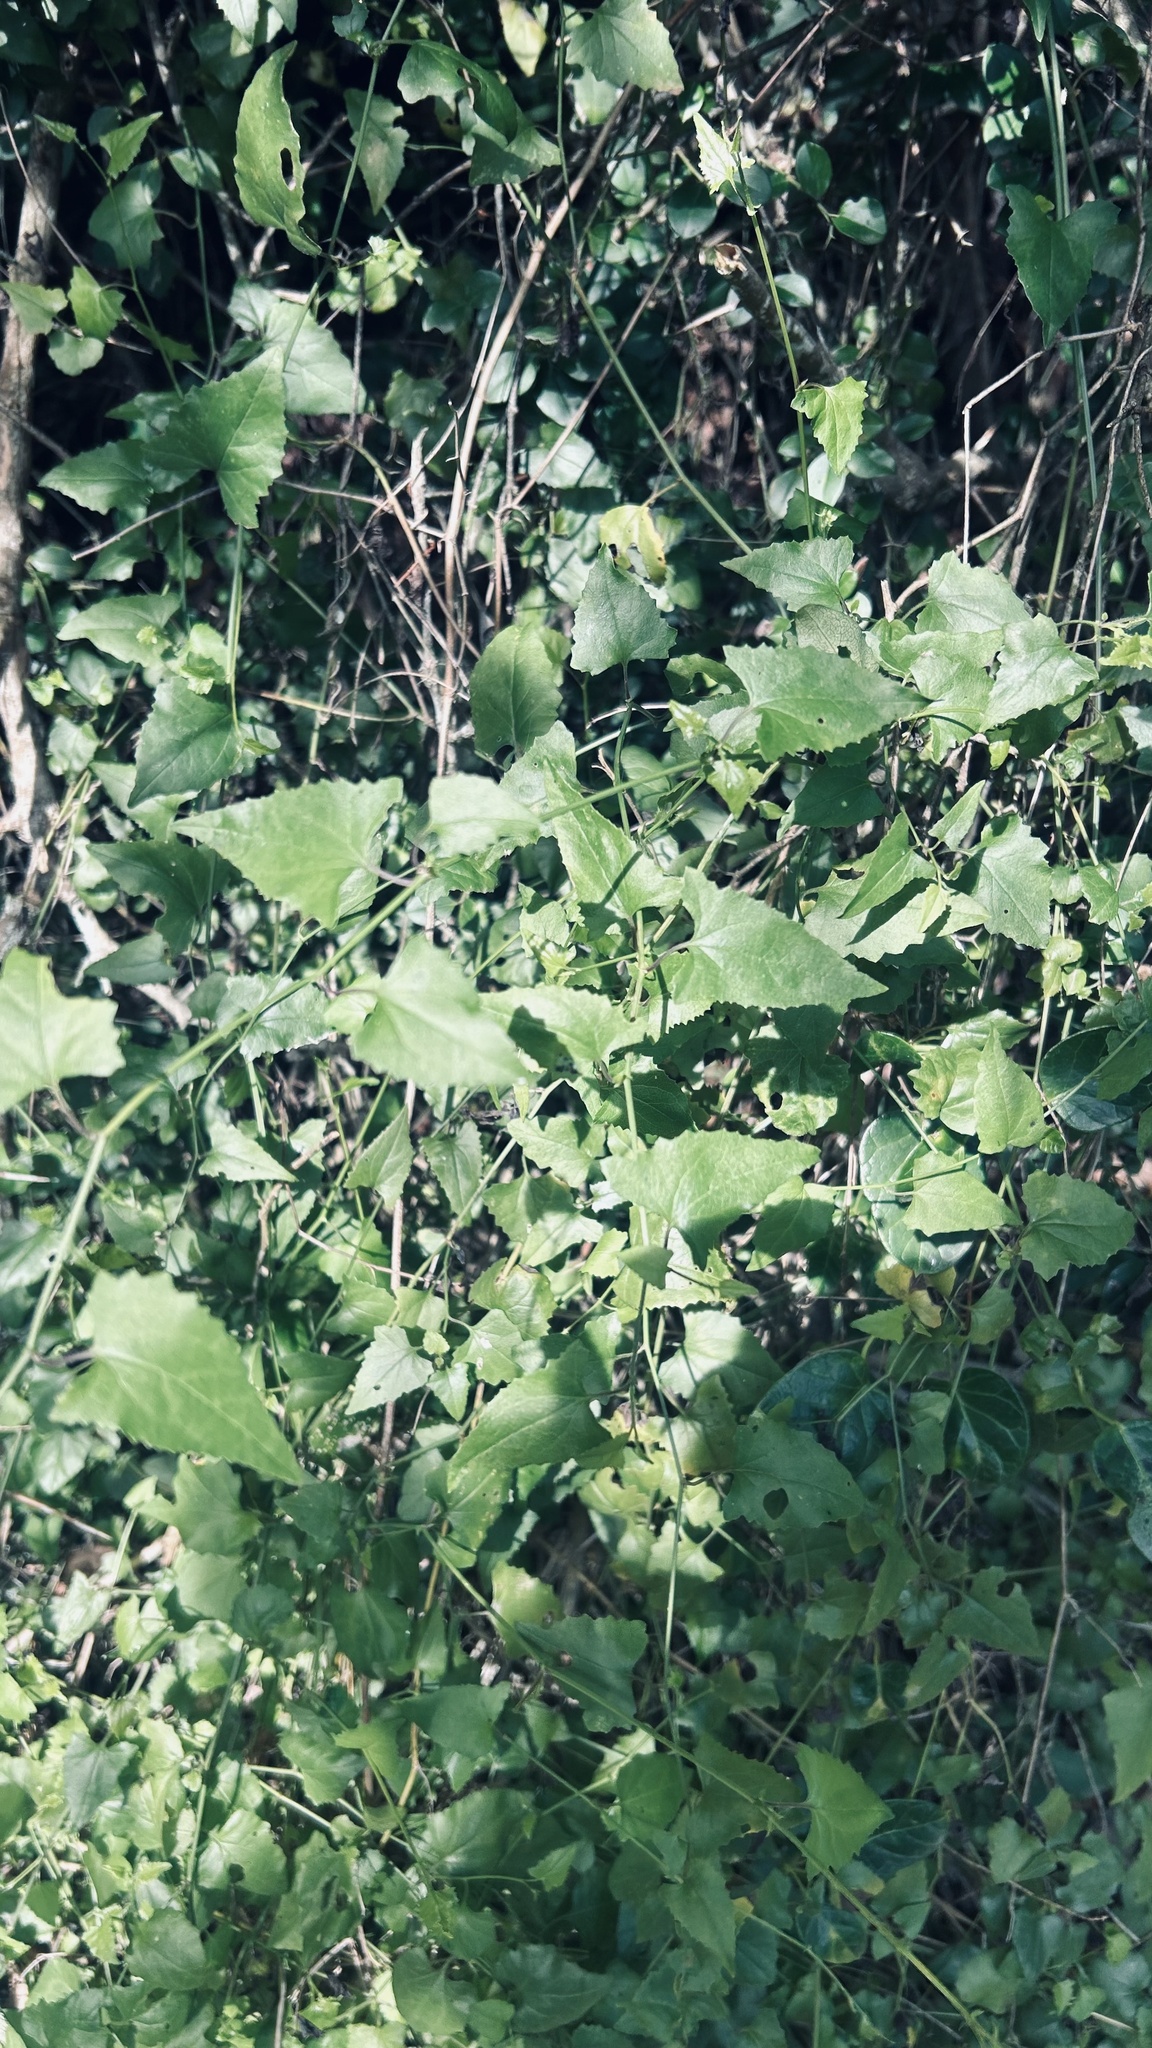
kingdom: Plantae
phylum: Tracheophyta
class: Magnoliopsida
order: Asterales
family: Asteraceae
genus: Senecio
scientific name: Senecio deltoideus
